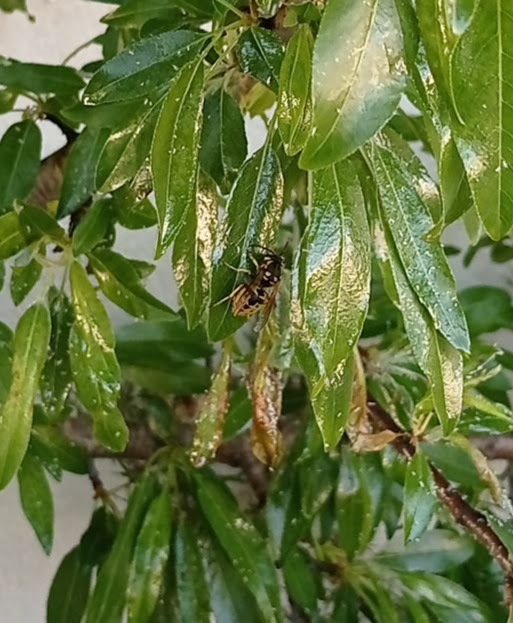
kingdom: Animalia
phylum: Arthropoda
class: Insecta
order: Hymenoptera
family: Vespidae
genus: Vespula
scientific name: Vespula germanica
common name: German wasp
